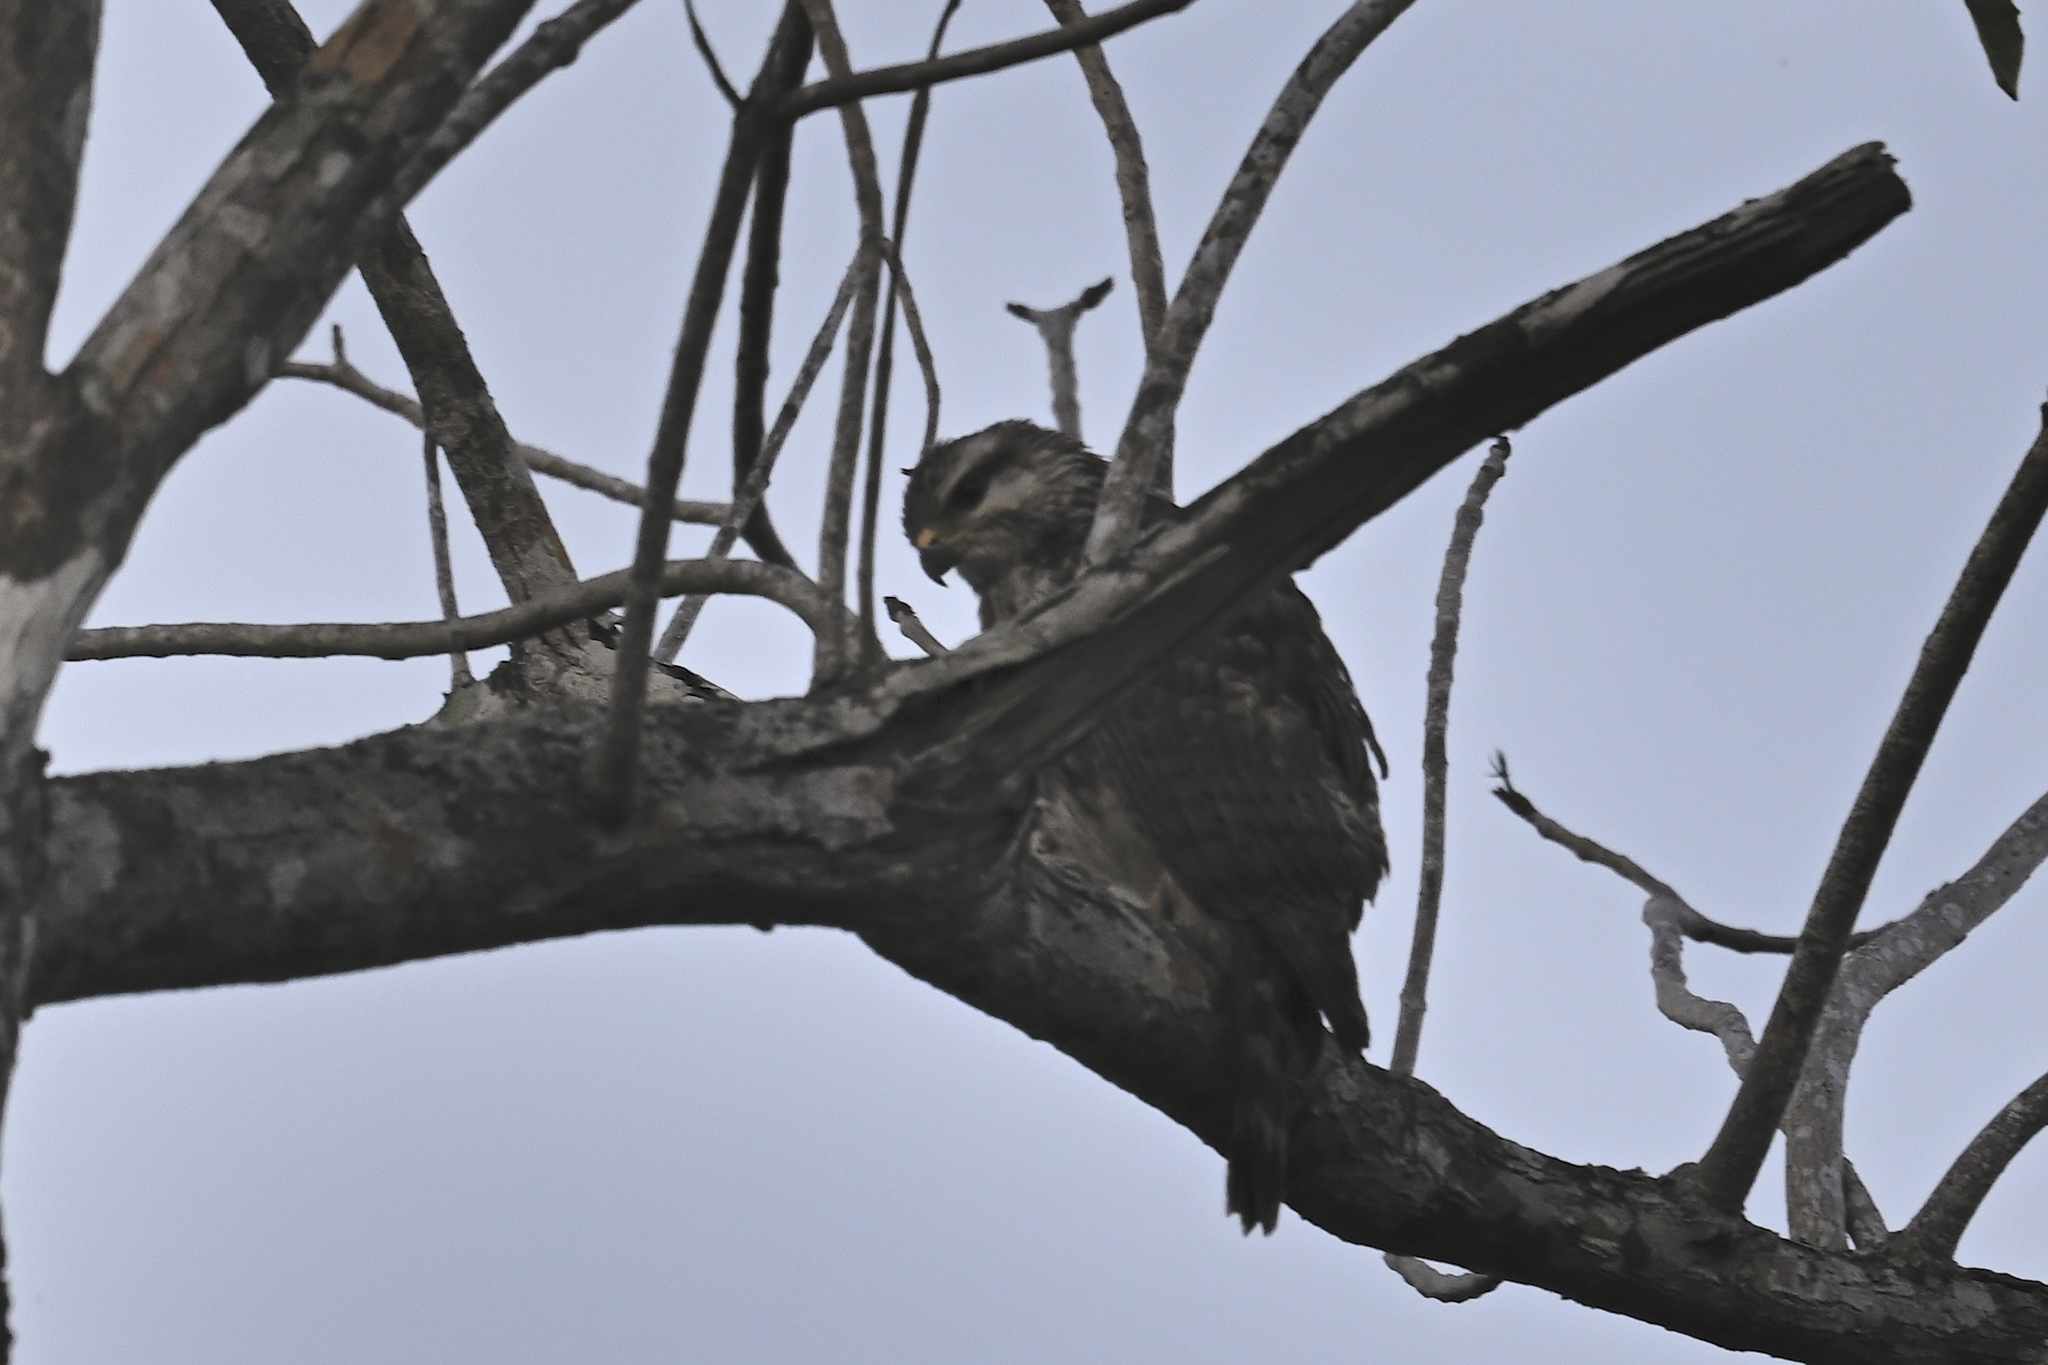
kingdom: Animalia
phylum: Chordata
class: Aves
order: Accipitriformes
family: Accipitridae
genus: Buteo
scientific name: Buteo nitidus
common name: Grey-lined hawk
